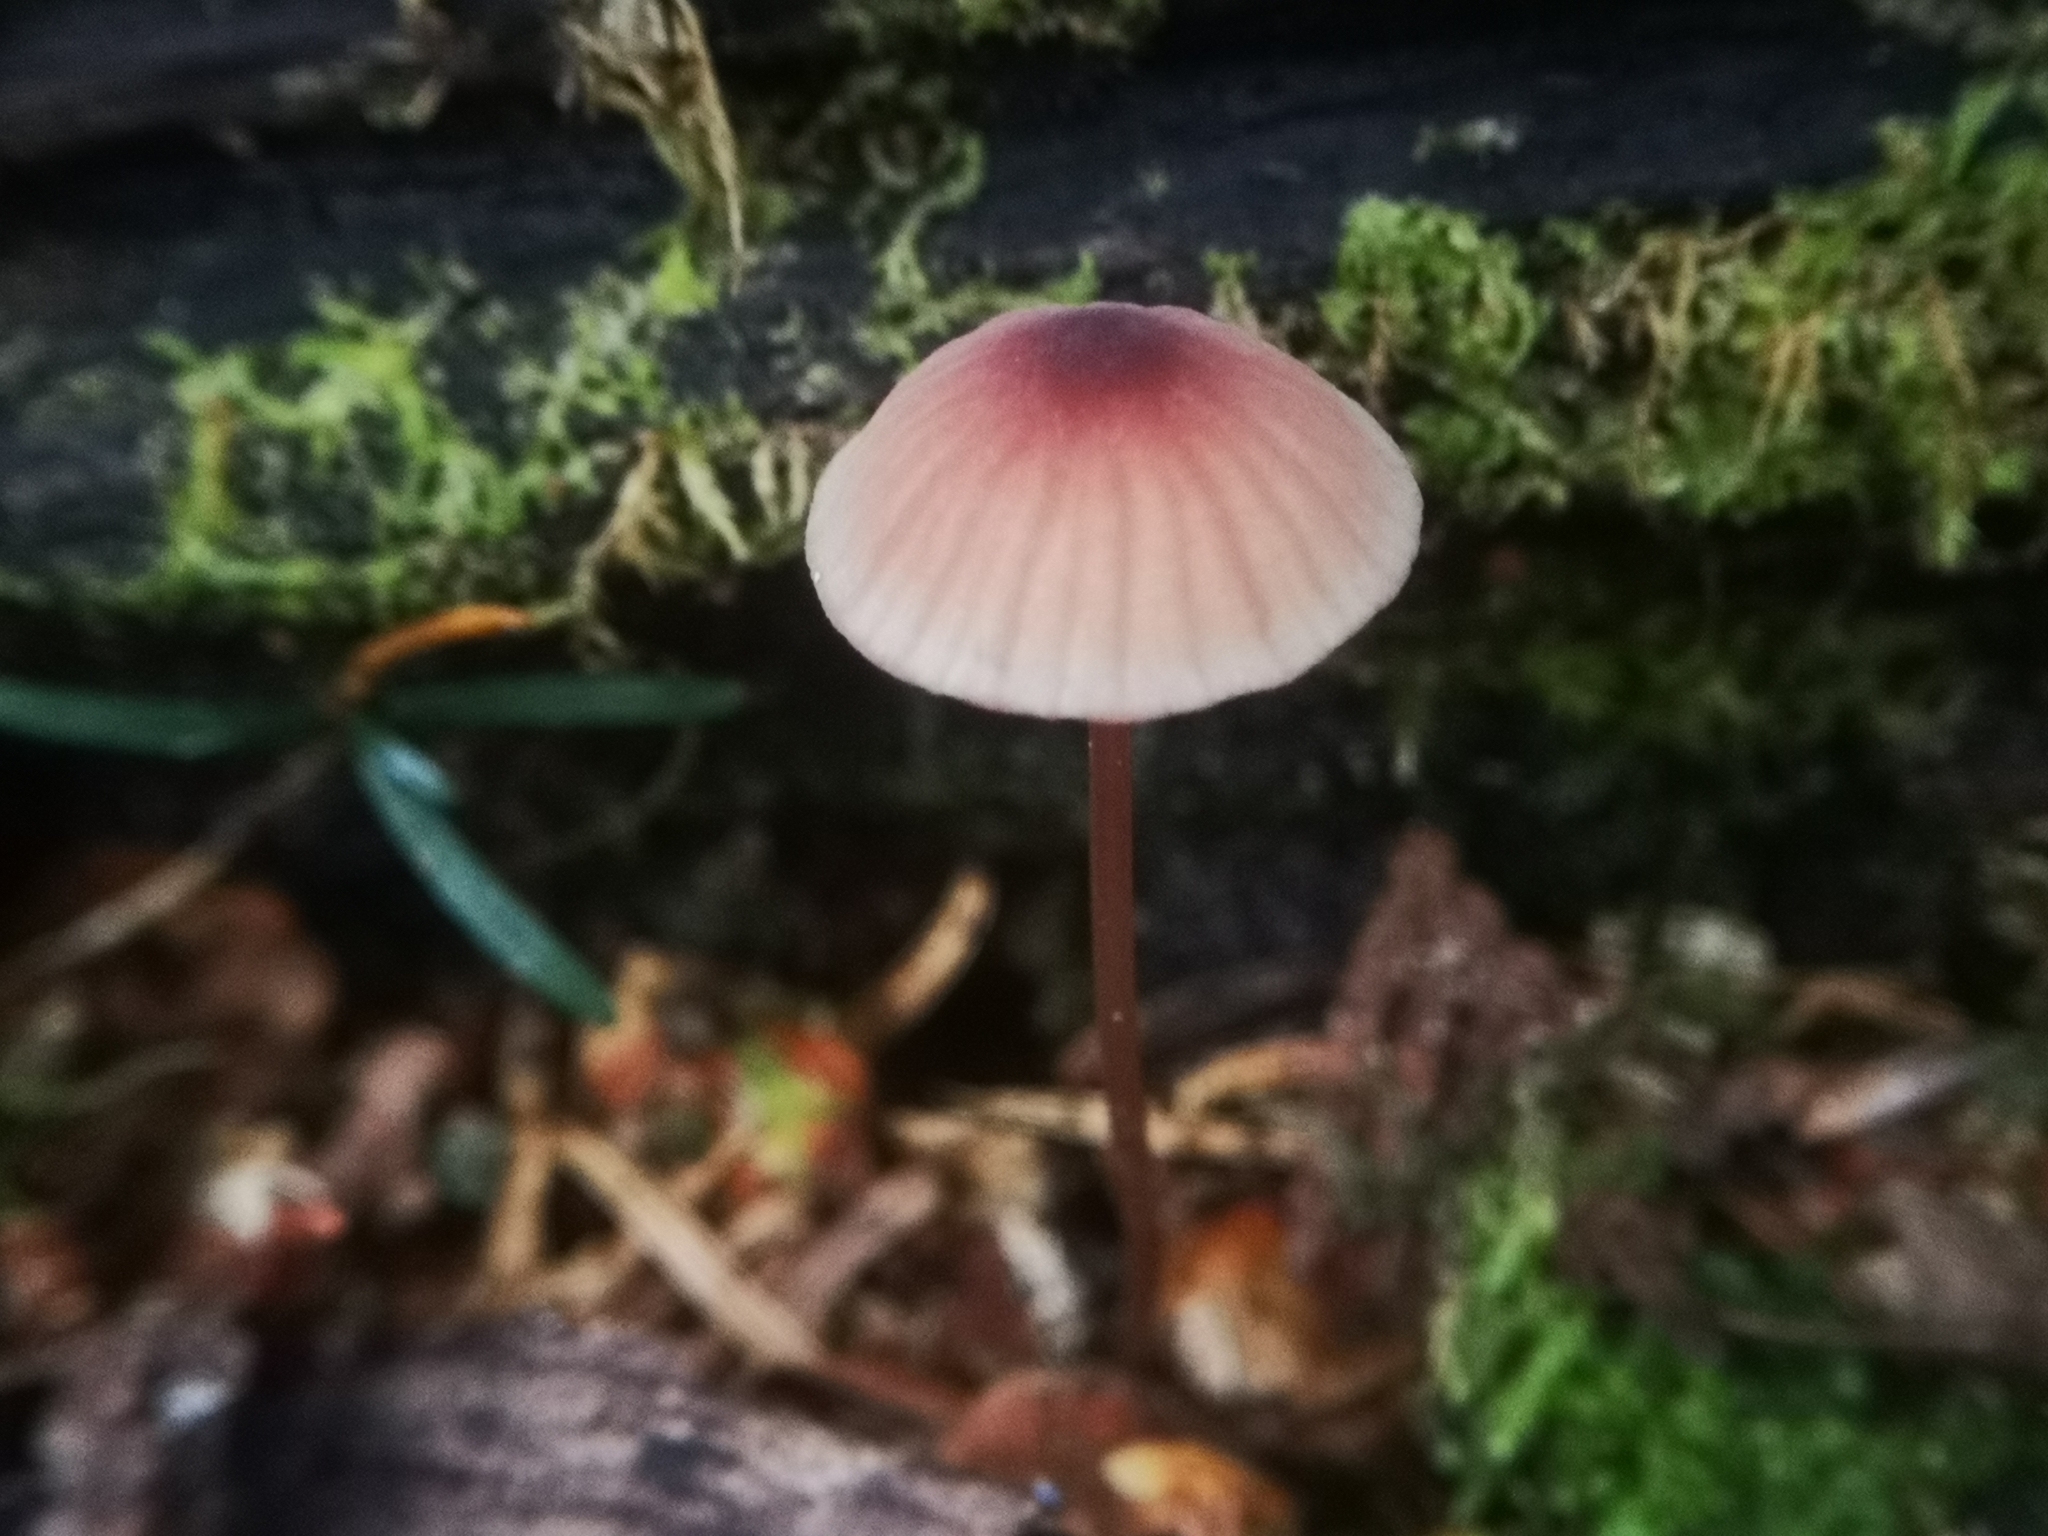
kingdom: Fungi
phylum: Basidiomycota
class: Agaricomycetes
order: Agaricales
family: Mycenaceae
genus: Mycena
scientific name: Mycena haematopus
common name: Burgundydrop bonnet
